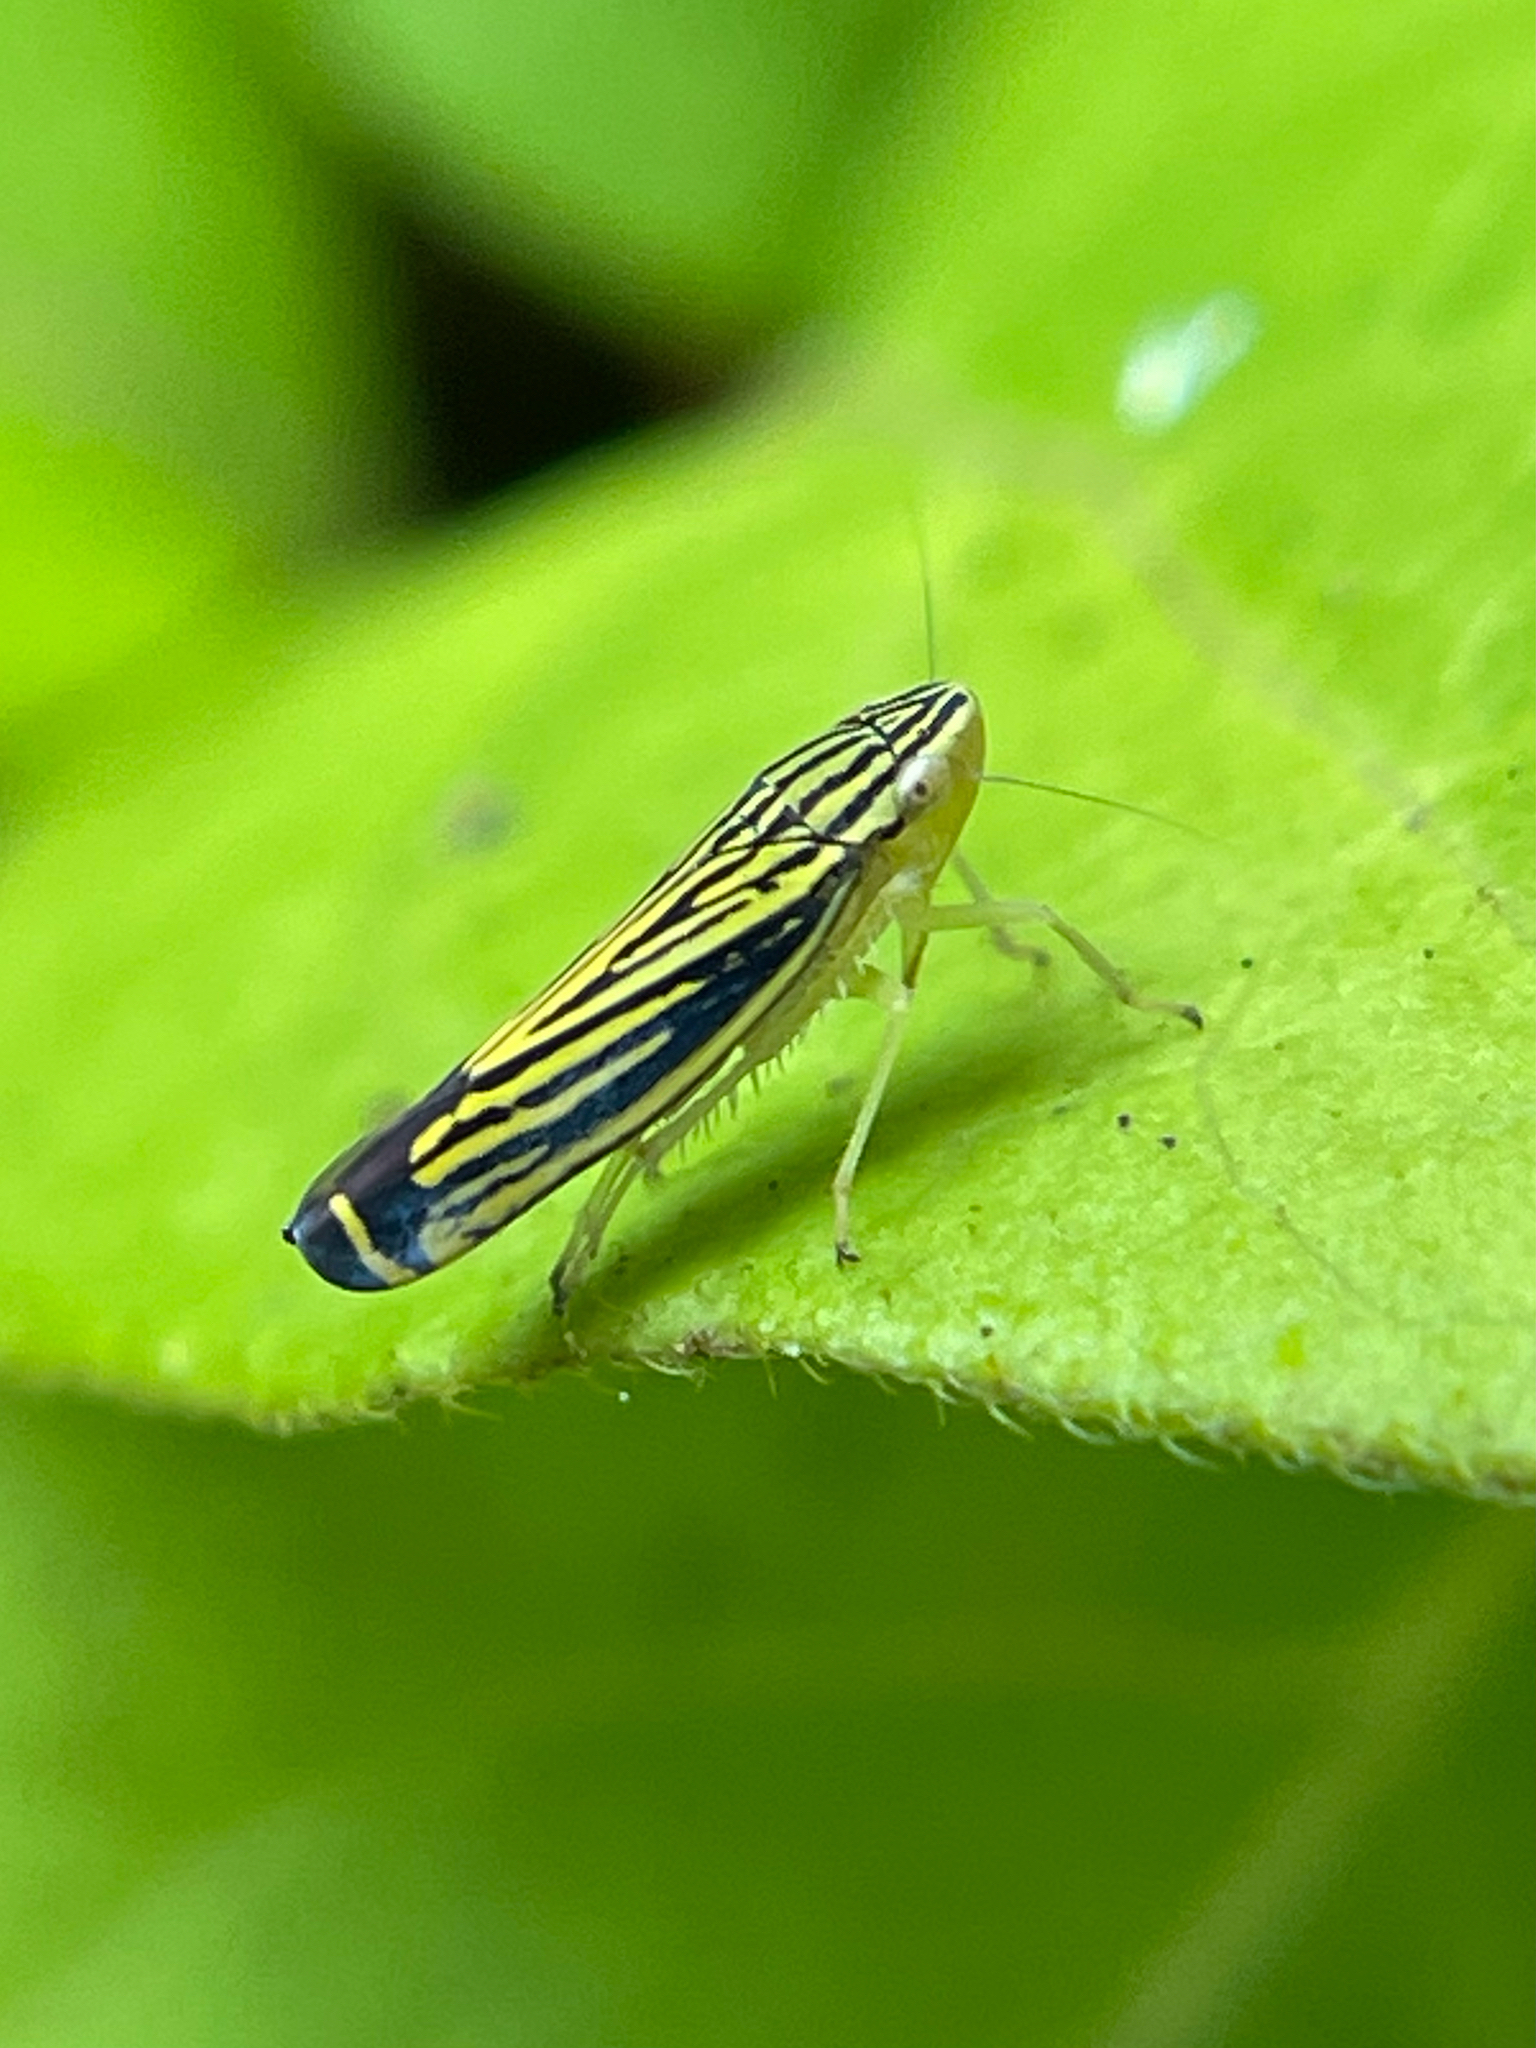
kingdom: Animalia
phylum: Arthropoda
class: Insecta
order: Hemiptera
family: Cicadellidae
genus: Sibovia
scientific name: Sibovia occatoria
